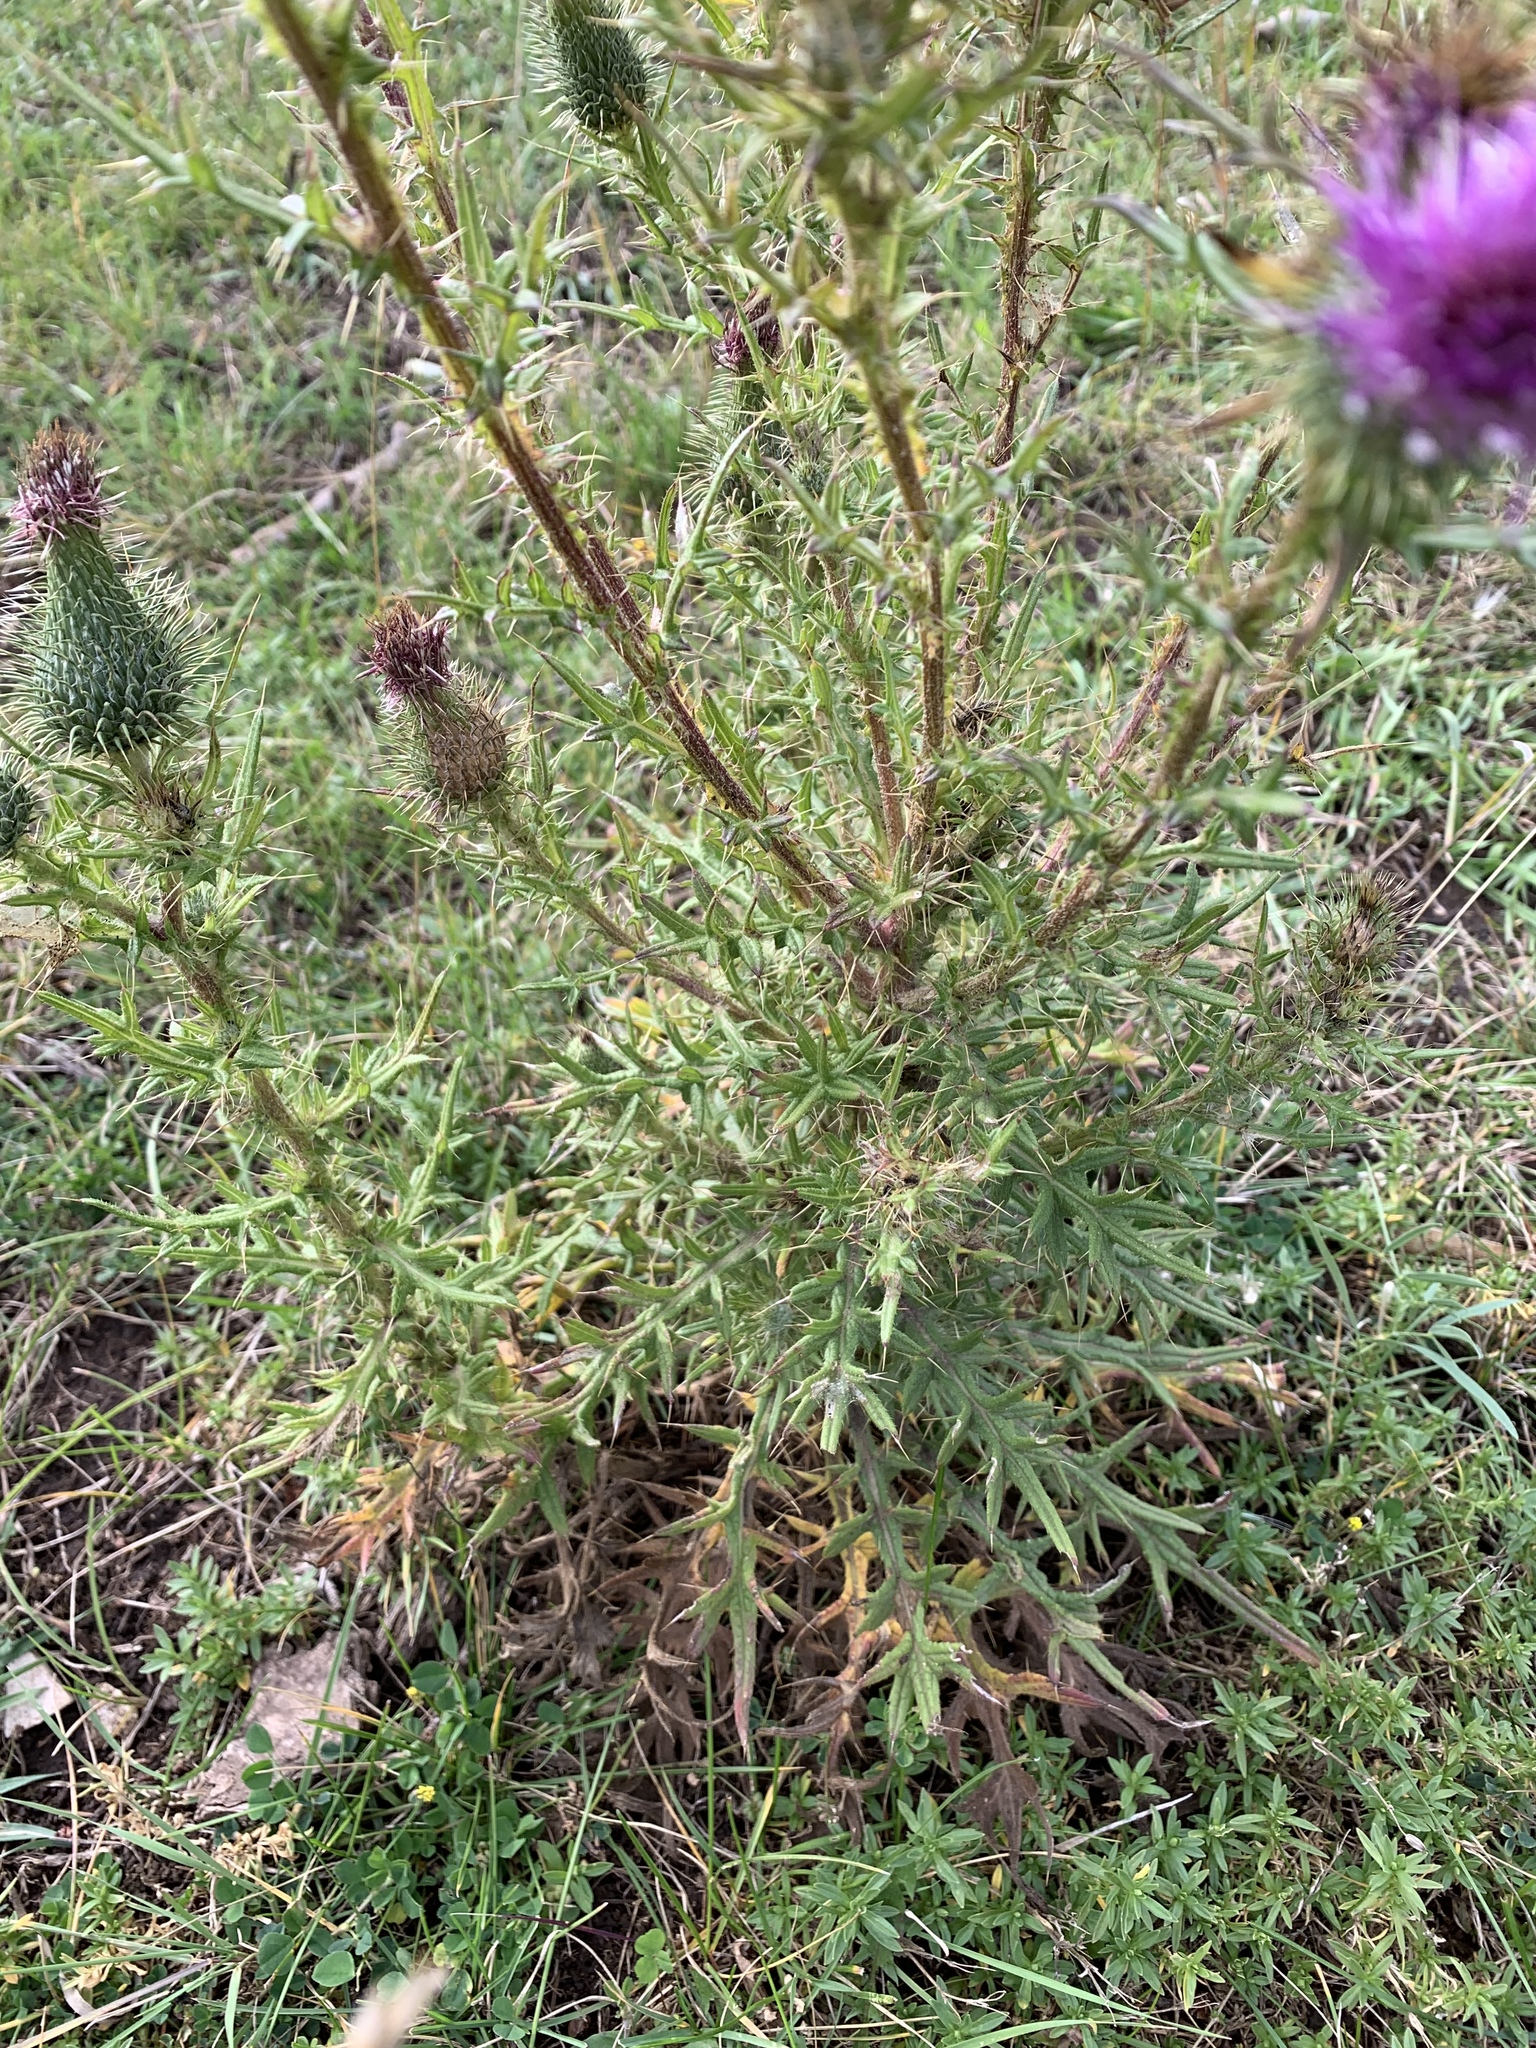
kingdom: Plantae
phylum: Tracheophyta
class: Magnoliopsida
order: Asterales
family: Asteraceae
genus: Cirsium
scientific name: Cirsium vulgare
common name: Bull thistle
